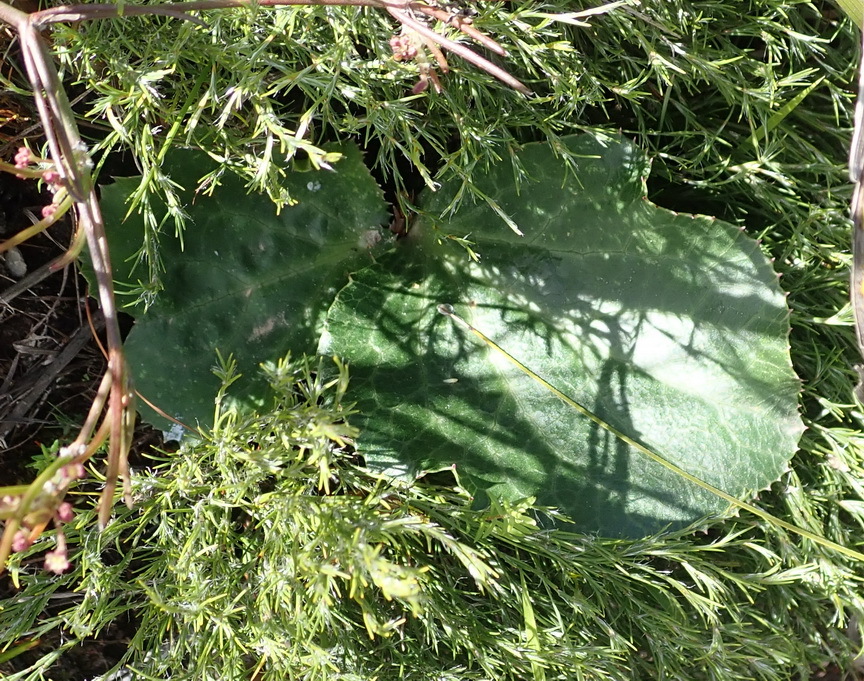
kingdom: Plantae
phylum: Tracheophyta
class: Magnoliopsida
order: Apiales
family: Apiaceae
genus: Lichtensteinia
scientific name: Lichtensteinia latifolia
